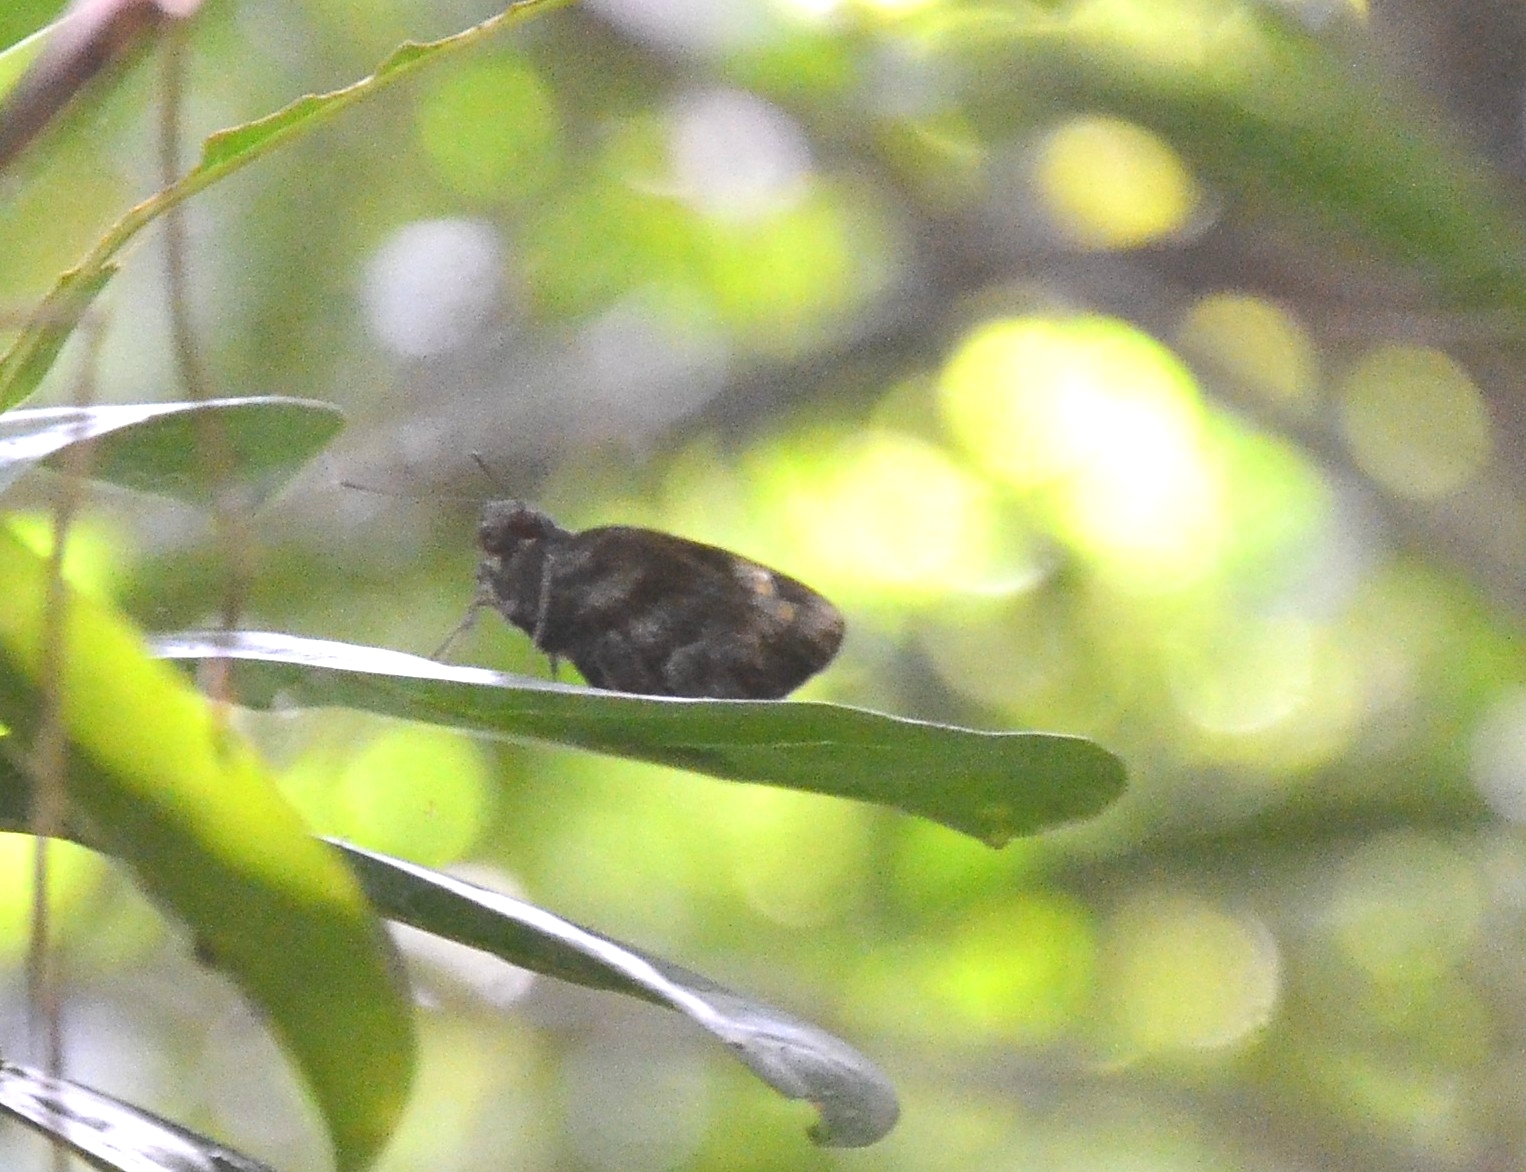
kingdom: Animalia
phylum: Arthropoda
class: Insecta
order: Lepidoptera
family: Hesperiidae
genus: Gangara
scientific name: Gangara thyrsis
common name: Giant redeye
